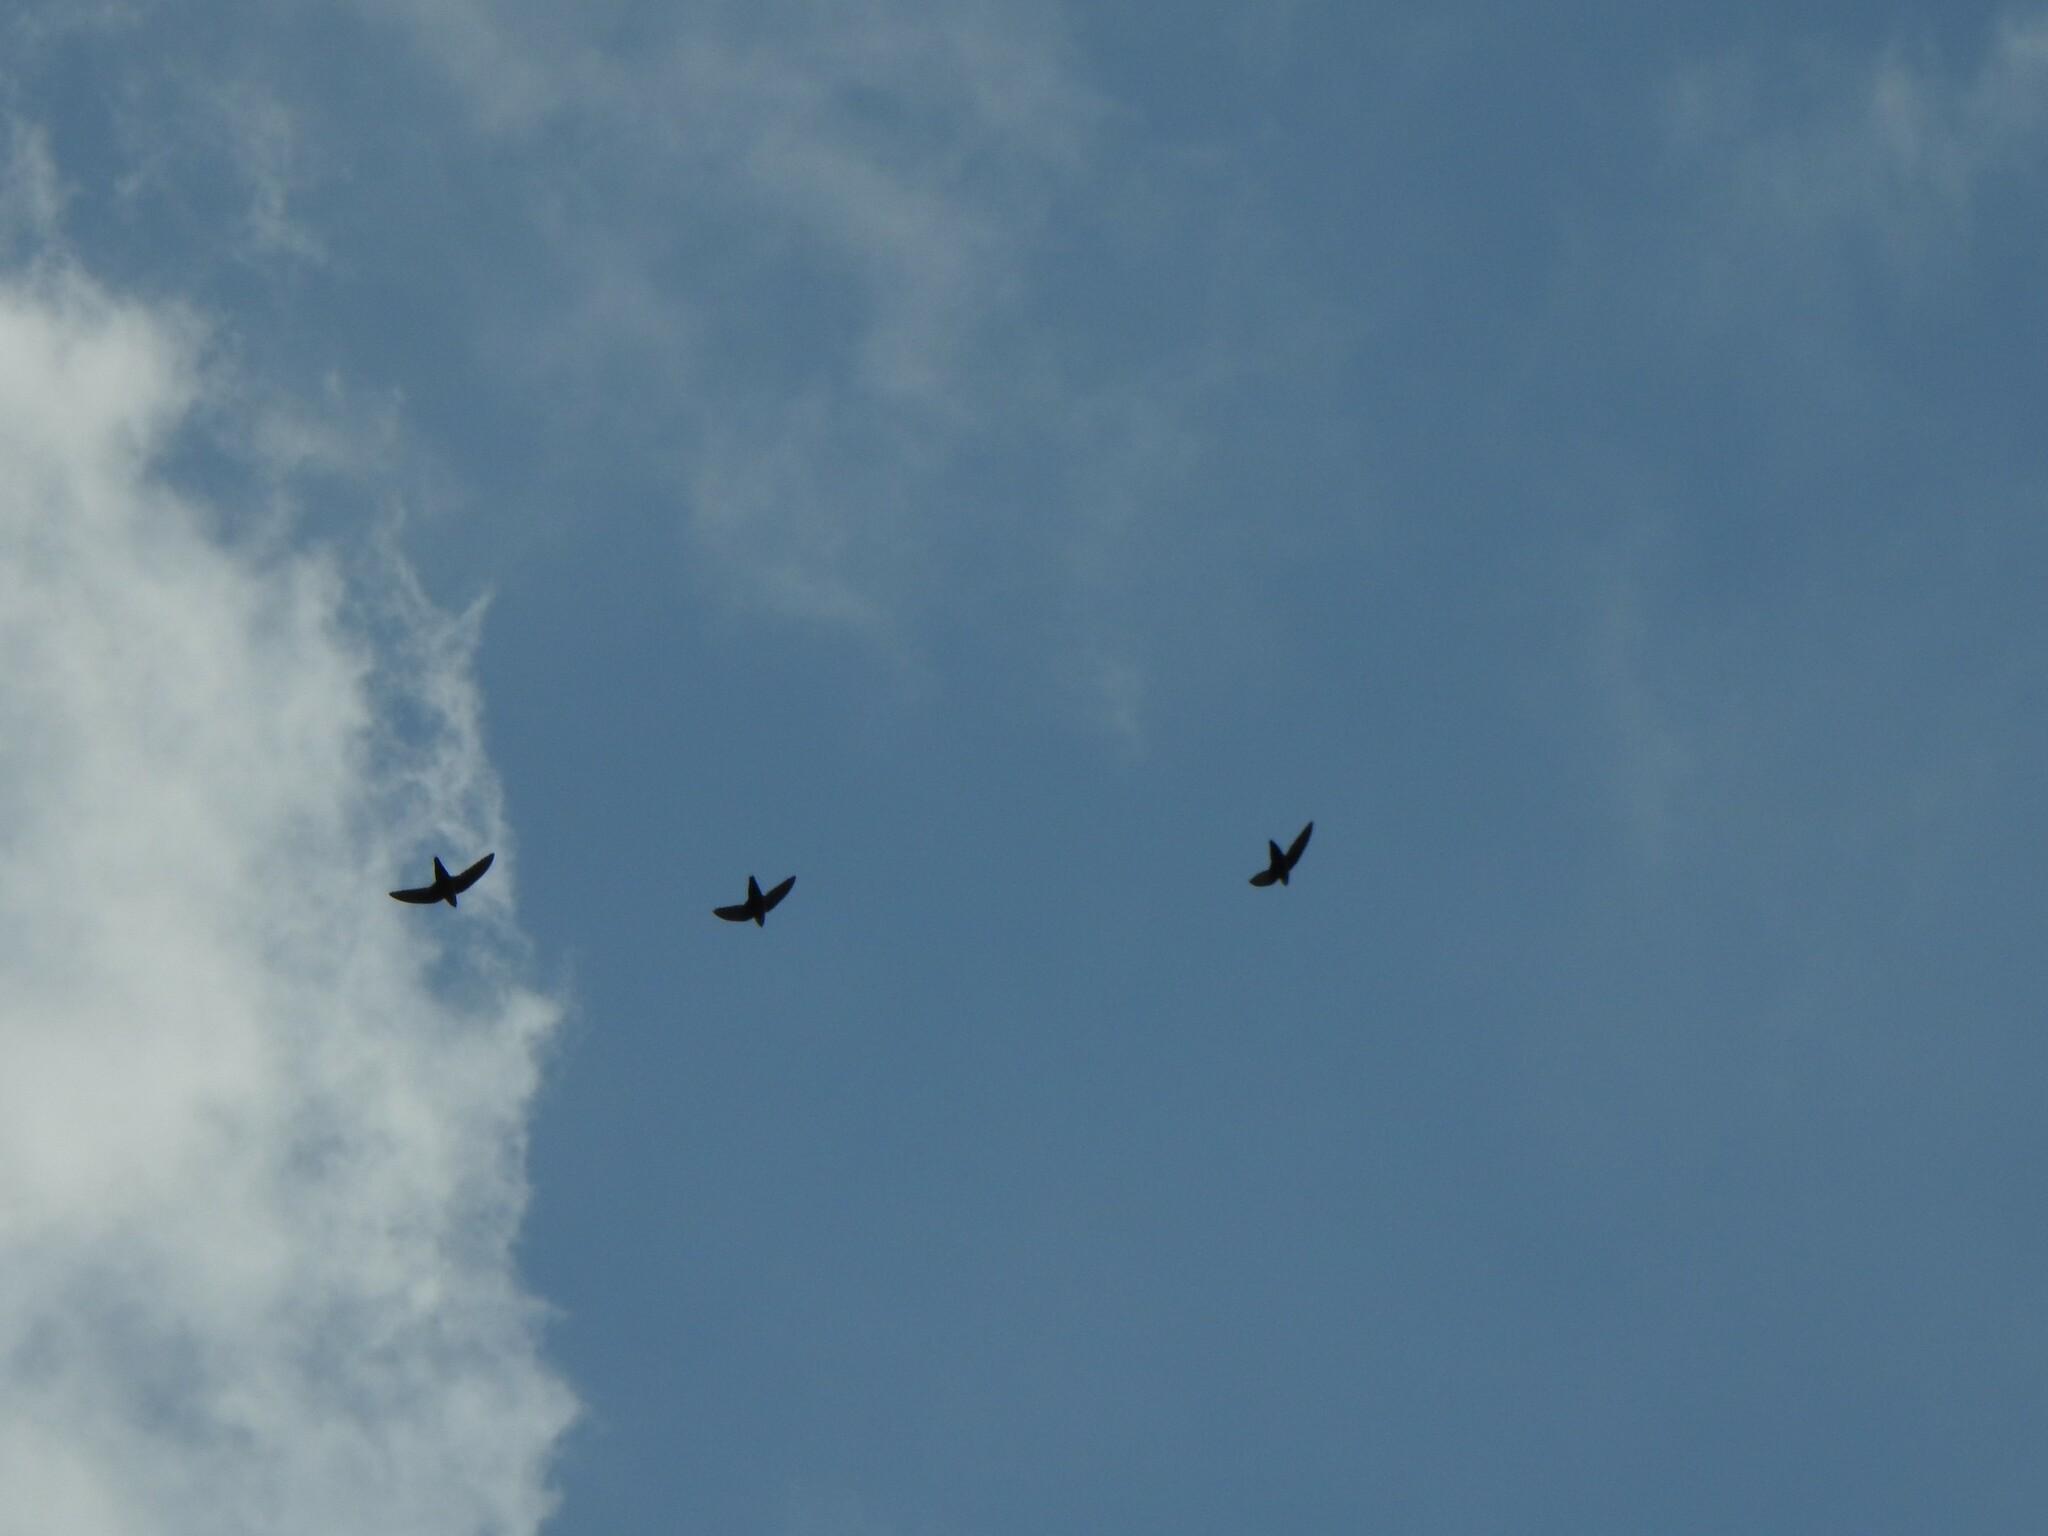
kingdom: Animalia
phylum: Chordata
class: Aves
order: Apodiformes
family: Apodidae
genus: Chaetura
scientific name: Chaetura pelagica
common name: Chimney swift
